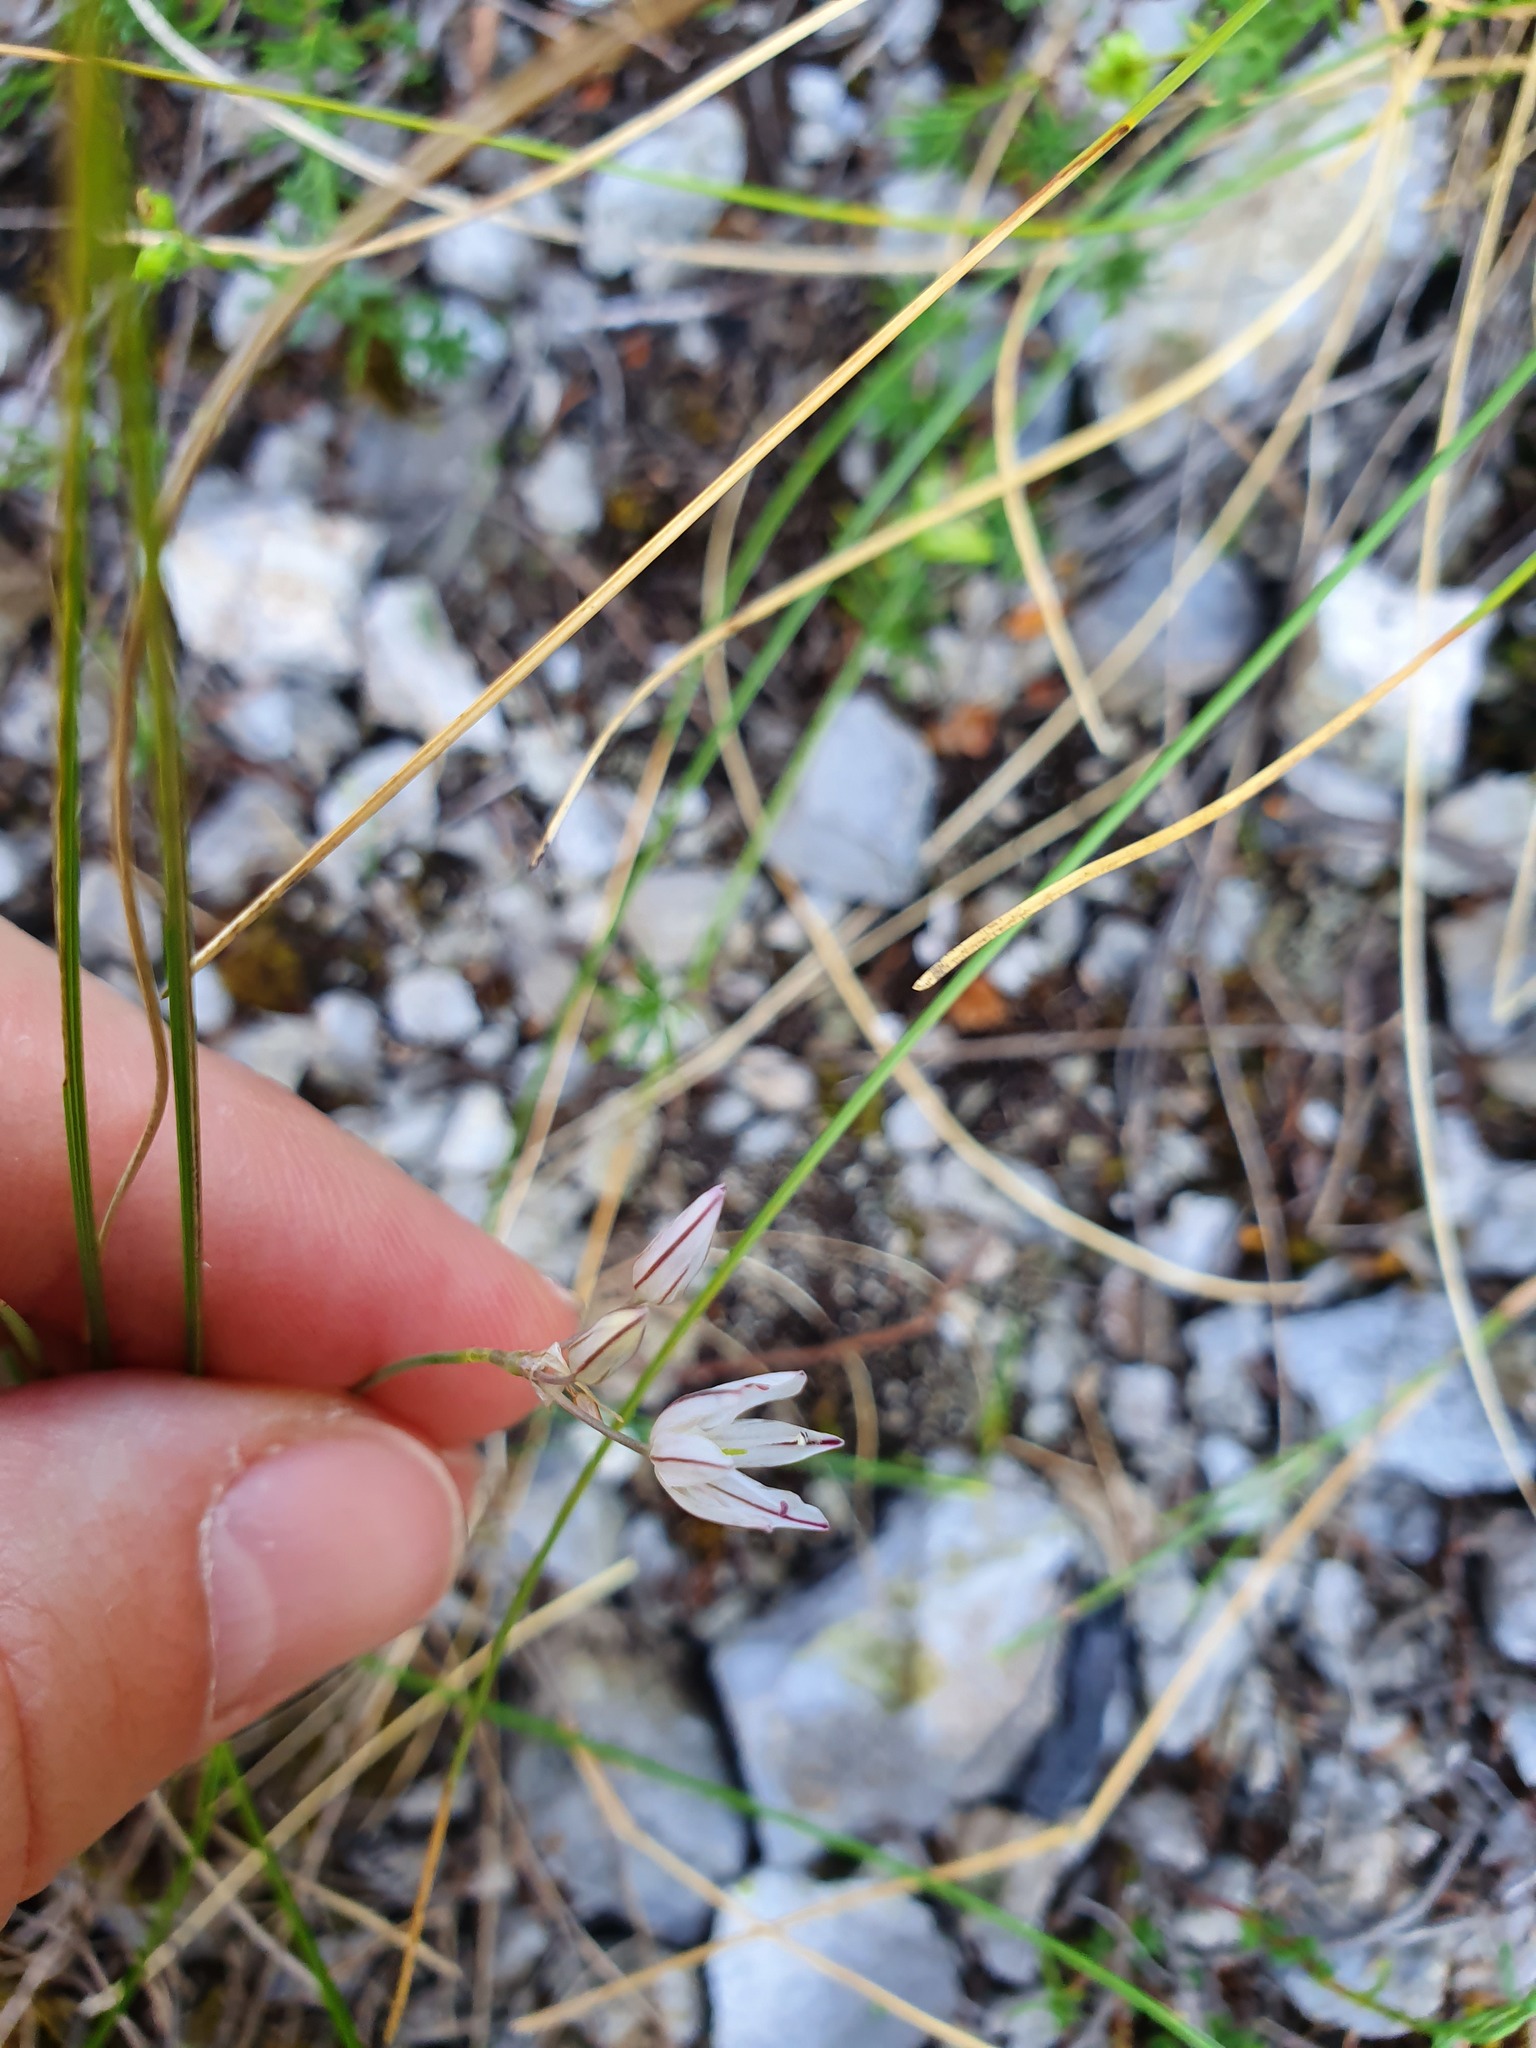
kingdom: Plantae
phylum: Tracheophyta
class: Liliopsida
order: Asparagales
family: Amaryllidaceae
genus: Allium
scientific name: Allium moschatum
